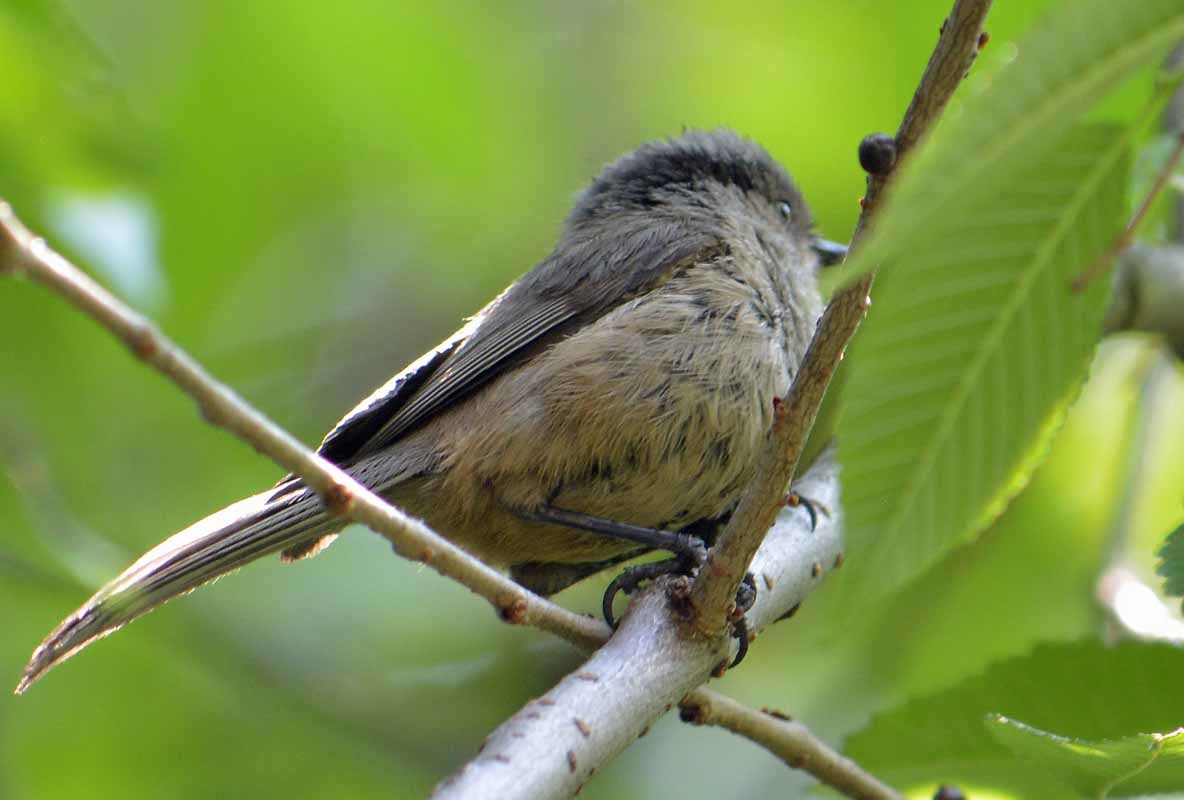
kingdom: Animalia
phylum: Chordata
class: Aves
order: Passeriformes
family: Aegithalidae
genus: Psaltriparus
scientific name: Psaltriparus minimus
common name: American bushtit
